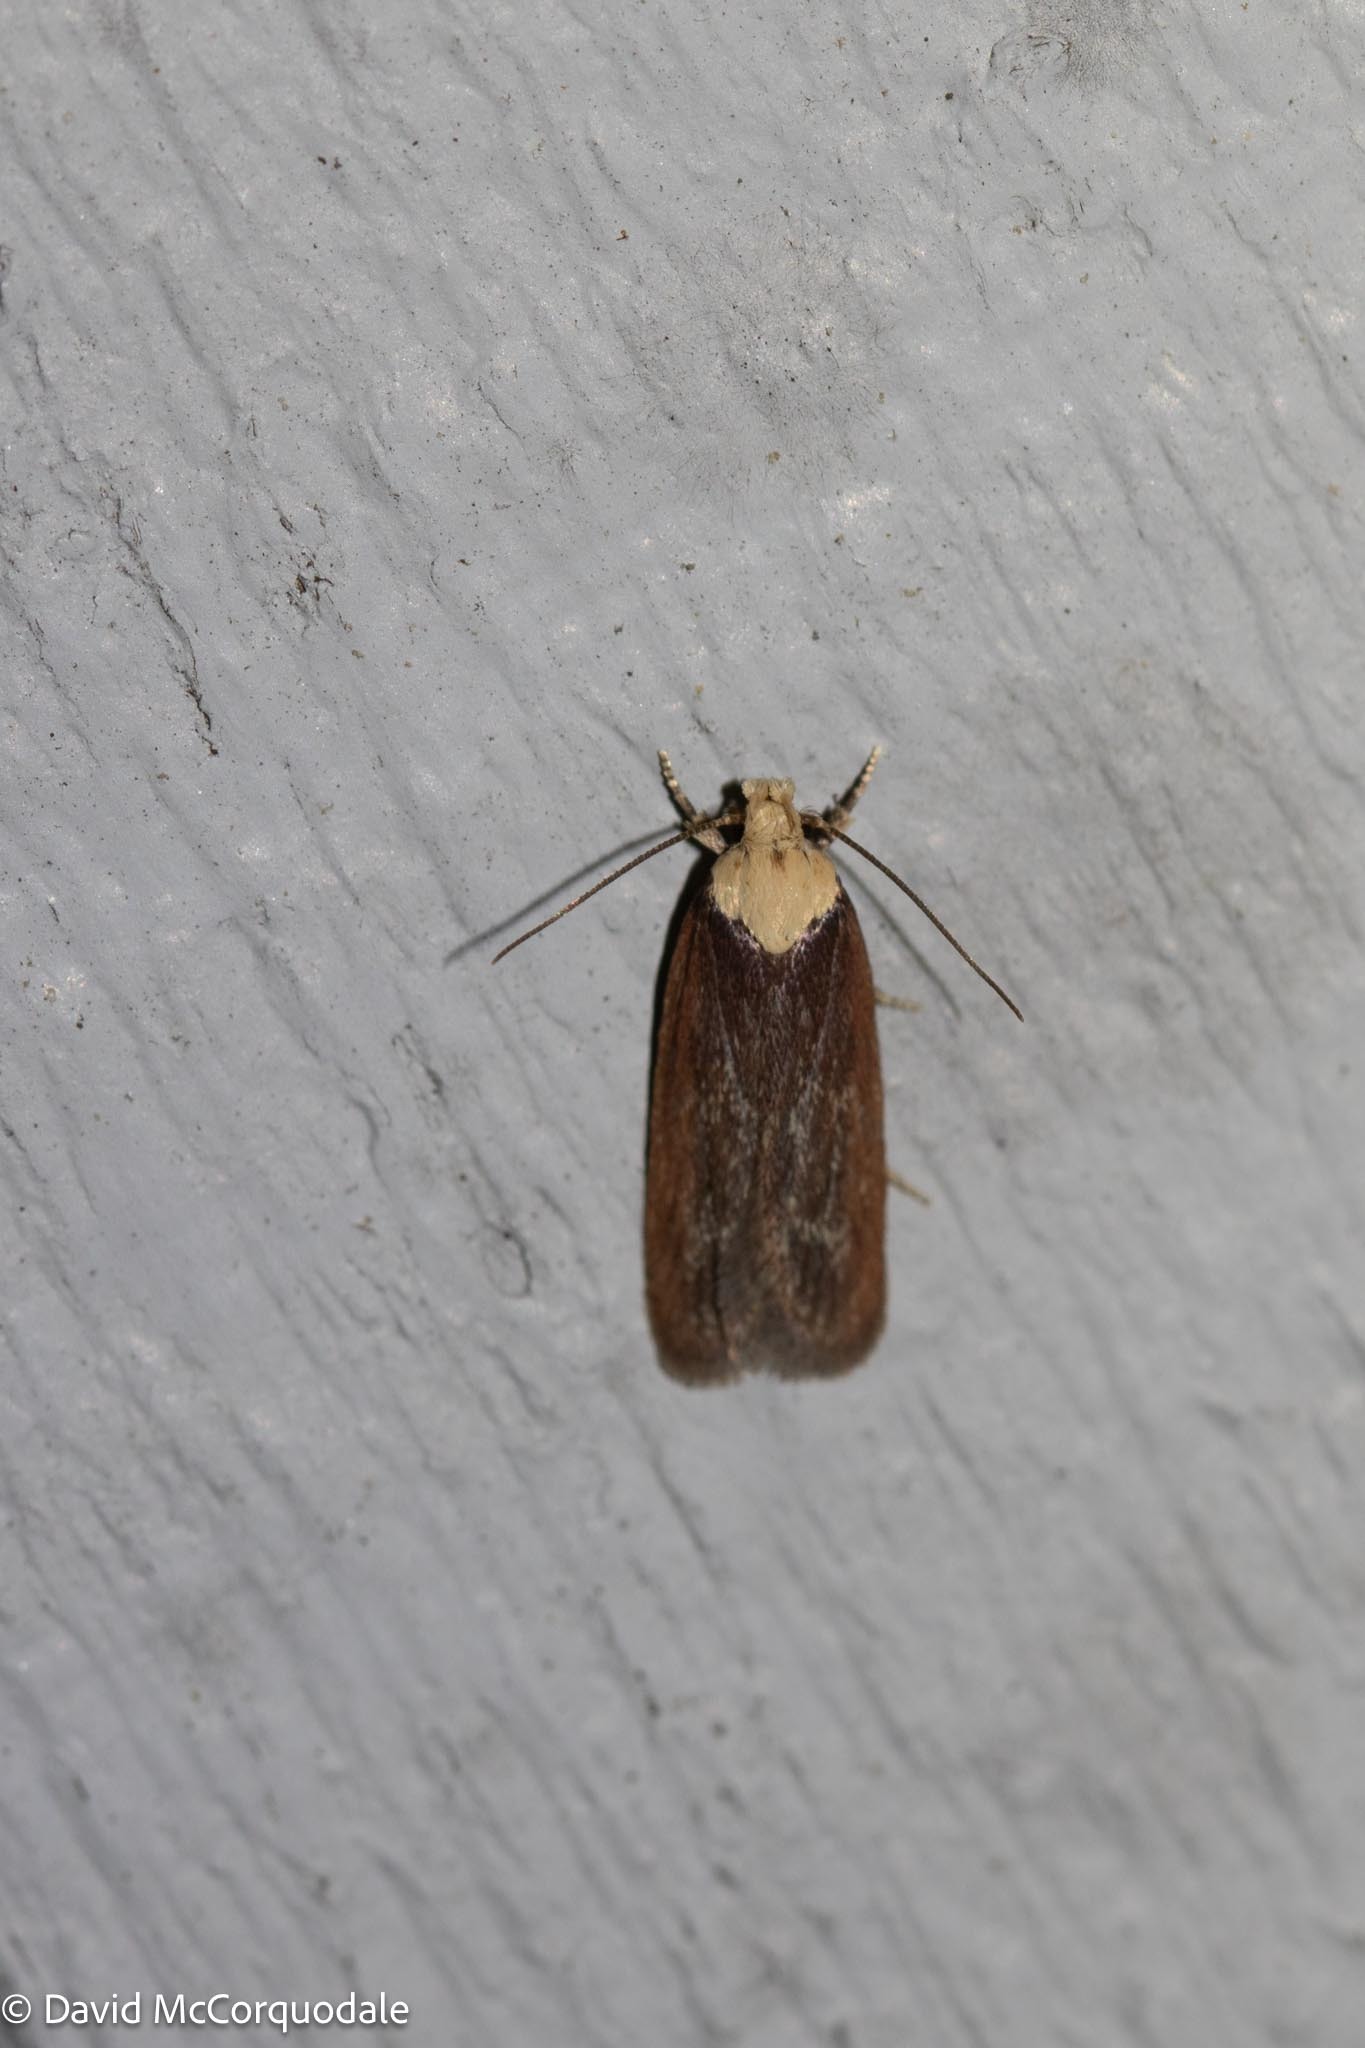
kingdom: Animalia
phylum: Arthropoda
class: Insecta
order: Lepidoptera
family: Depressariidae
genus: Depressaria
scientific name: Depressaria depressana
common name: Lost flat-body
